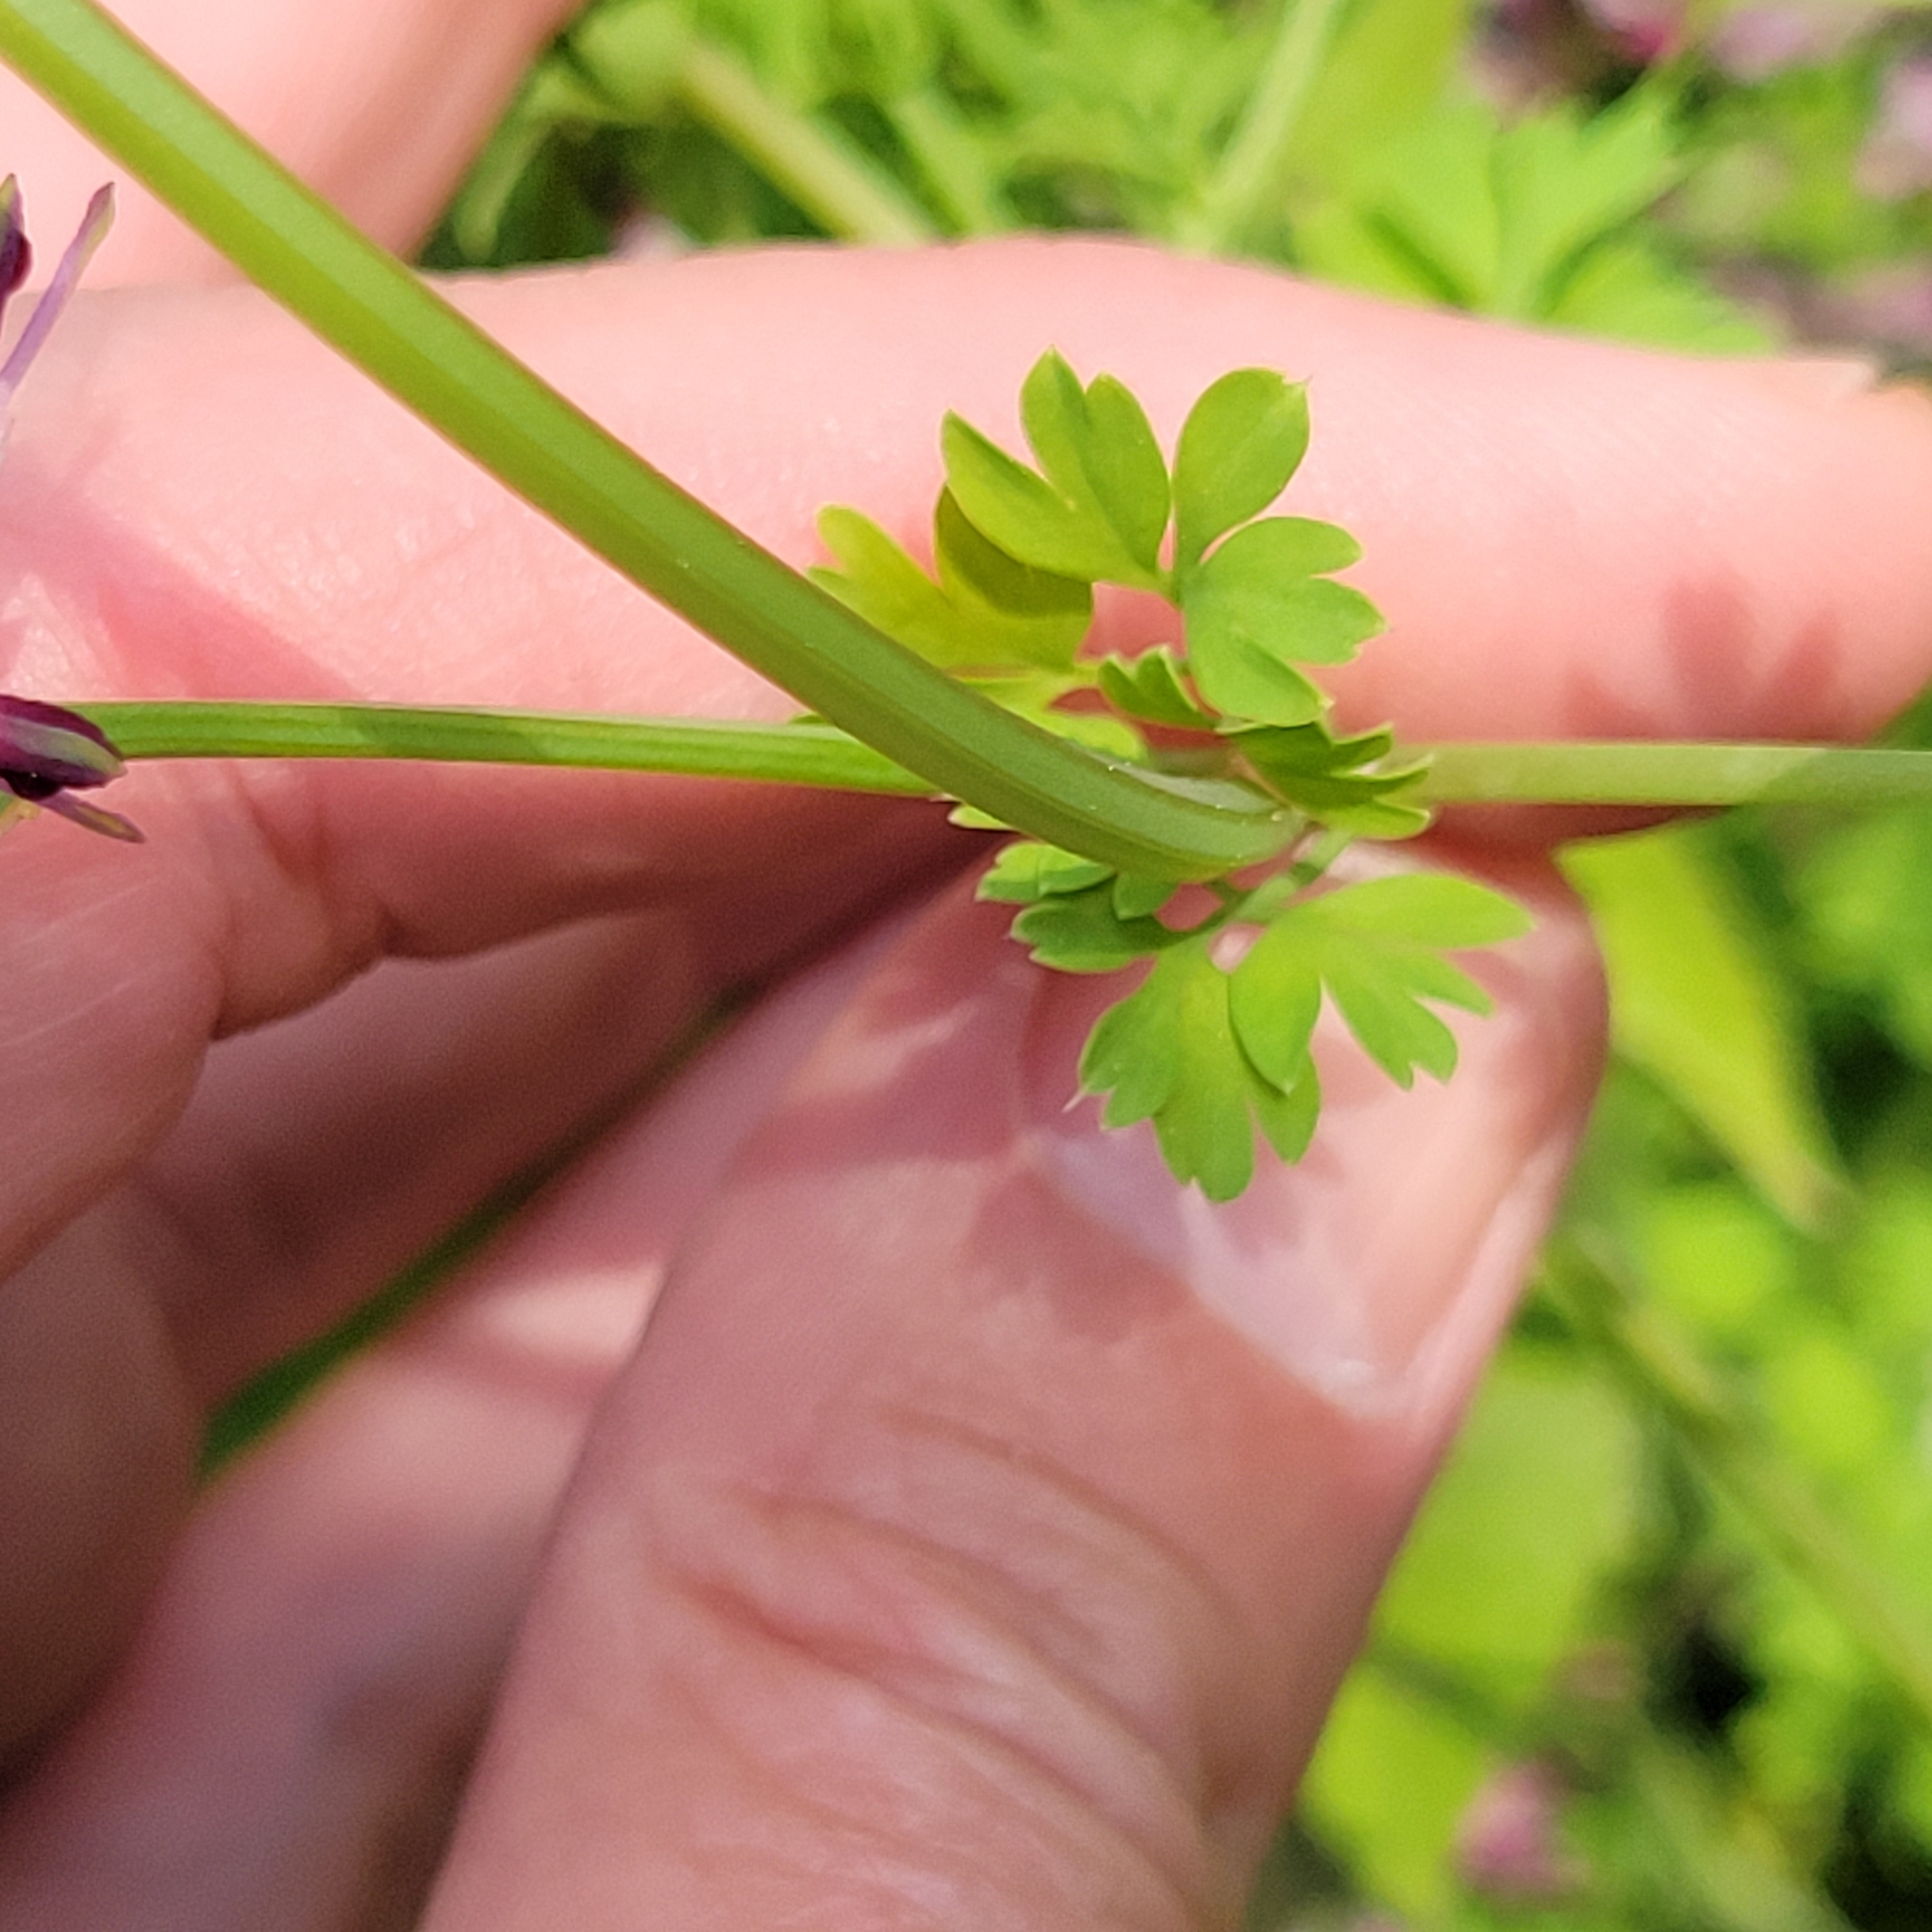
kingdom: Plantae
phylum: Tracheophyta
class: Magnoliopsida
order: Ranunculales
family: Papaveraceae
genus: Fumaria
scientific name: Fumaria officinalis
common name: Common fumitory
